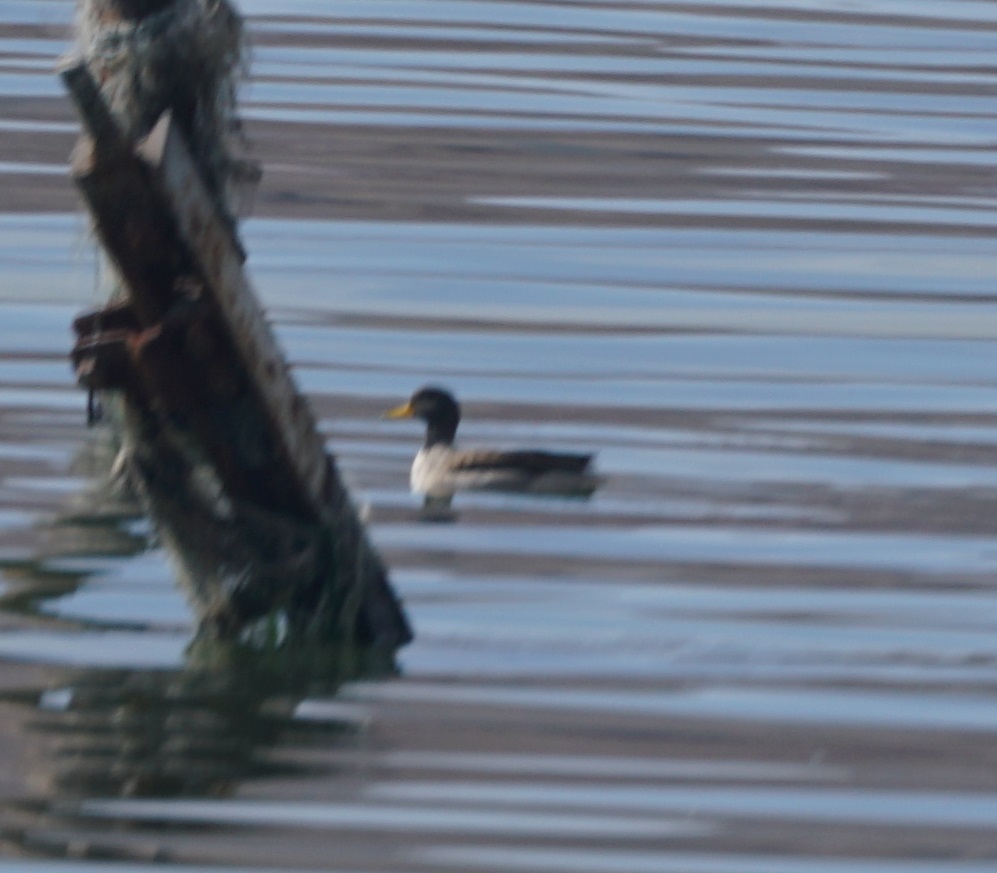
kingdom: Animalia
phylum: Chordata
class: Aves
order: Anseriformes
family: Anatidae
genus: Anas
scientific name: Anas flavirostris
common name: Yellow-billed teal
